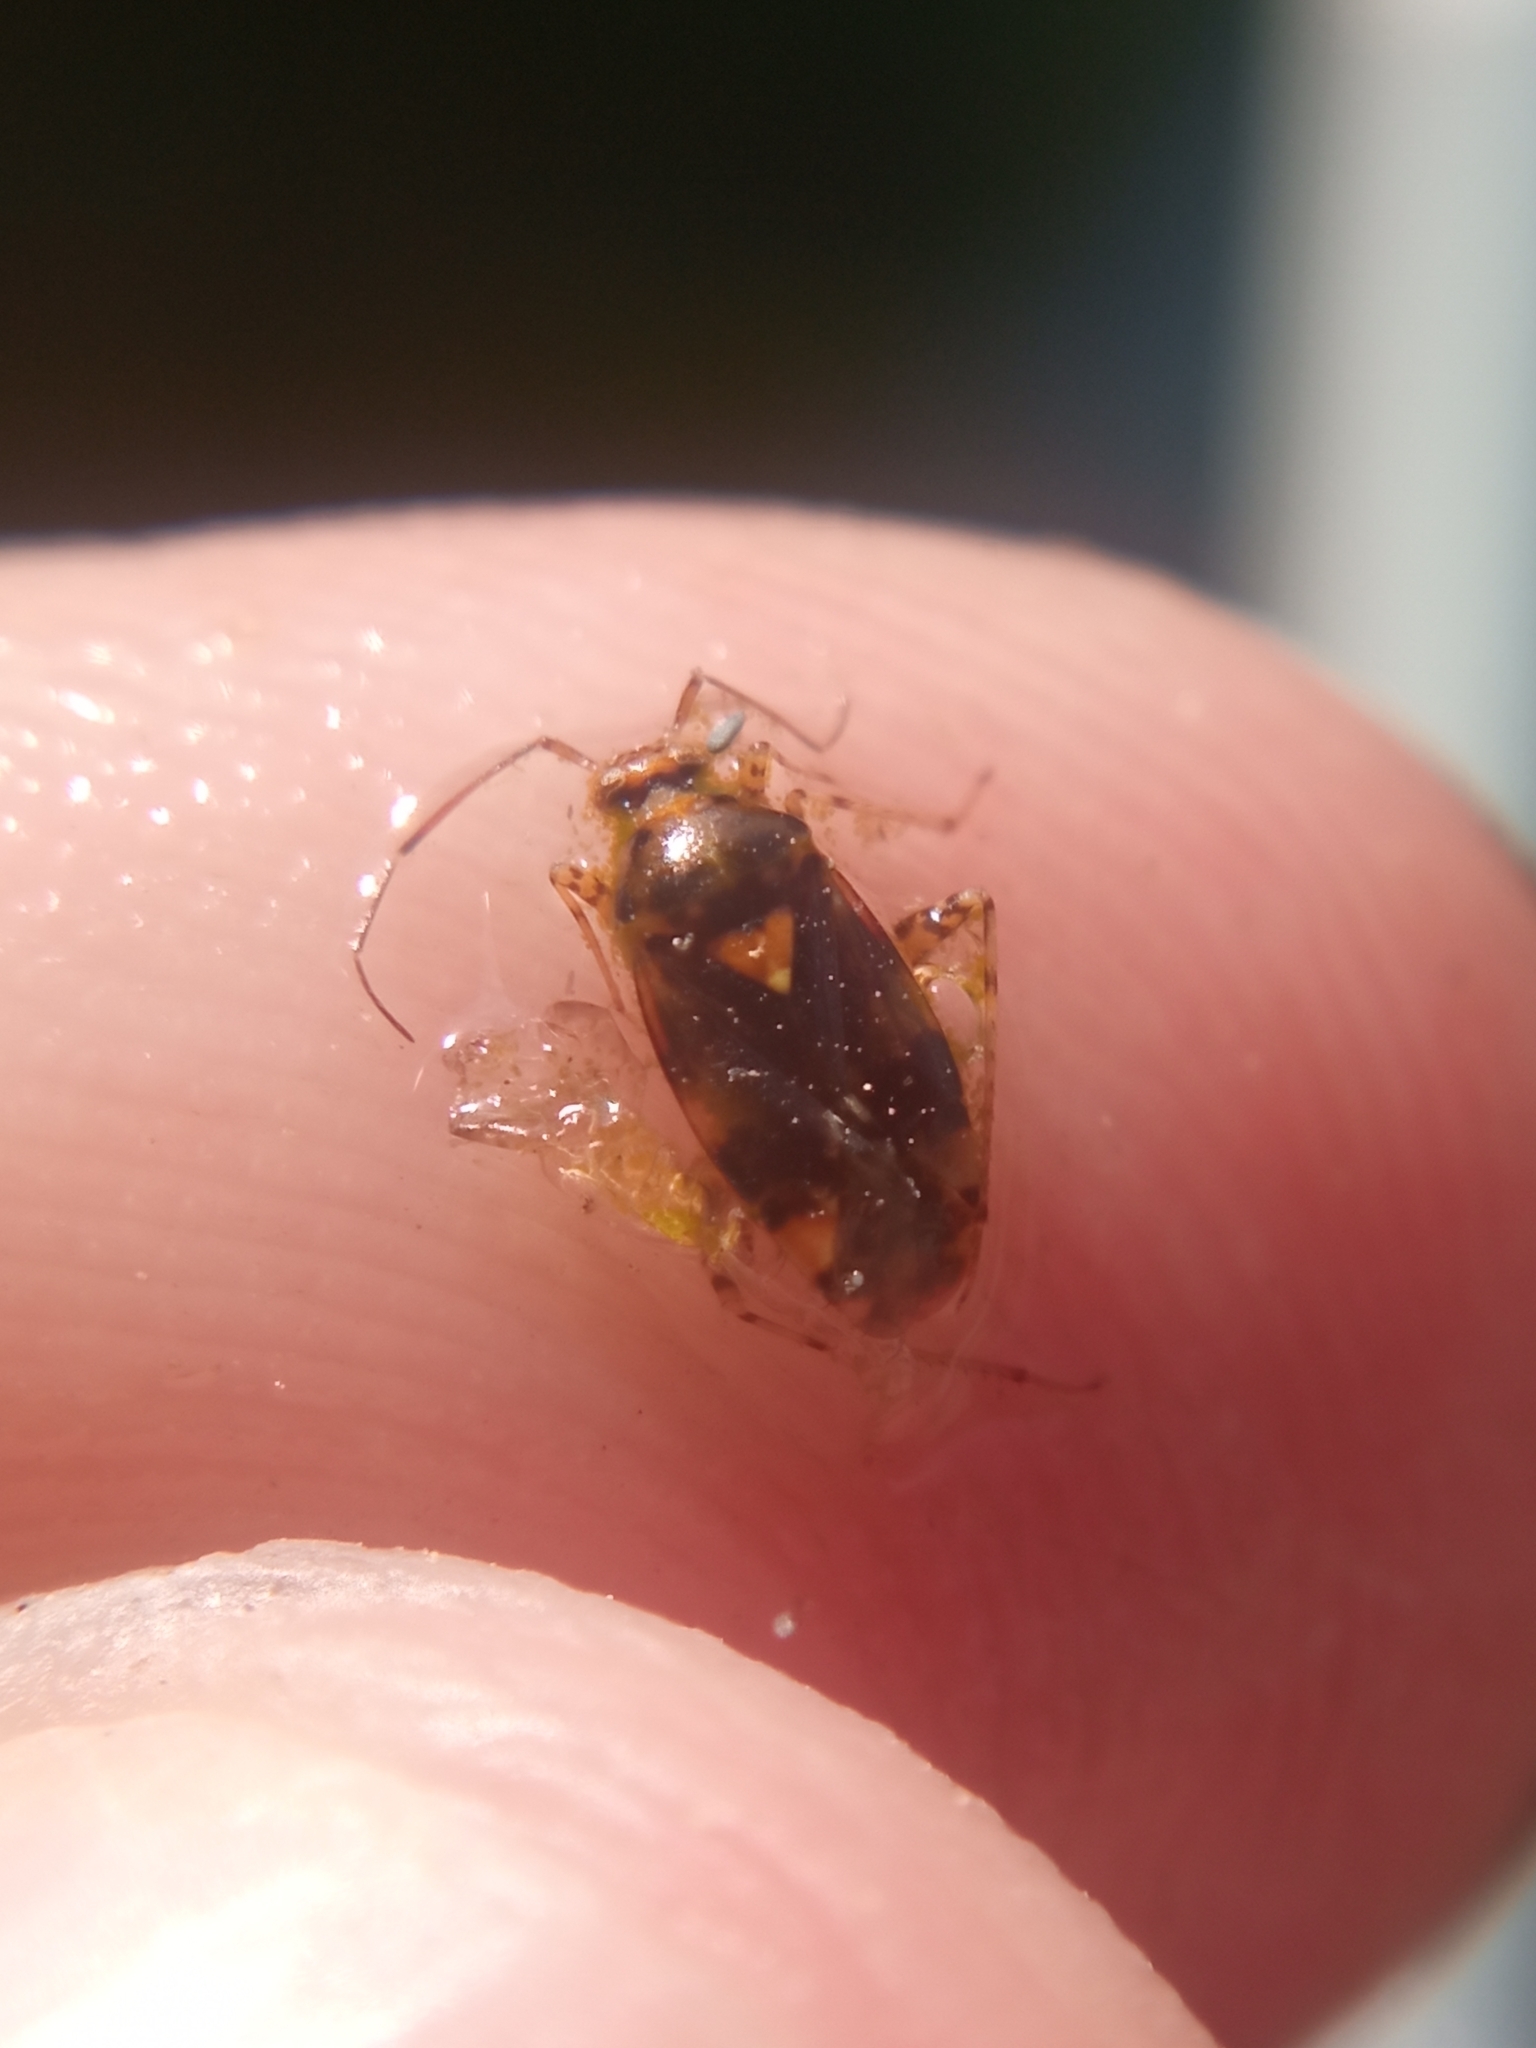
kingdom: Animalia
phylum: Arthropoda
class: Insecta
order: Hemiptera
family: Miridae
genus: Liocoris
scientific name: Liocoris tripustulatus
